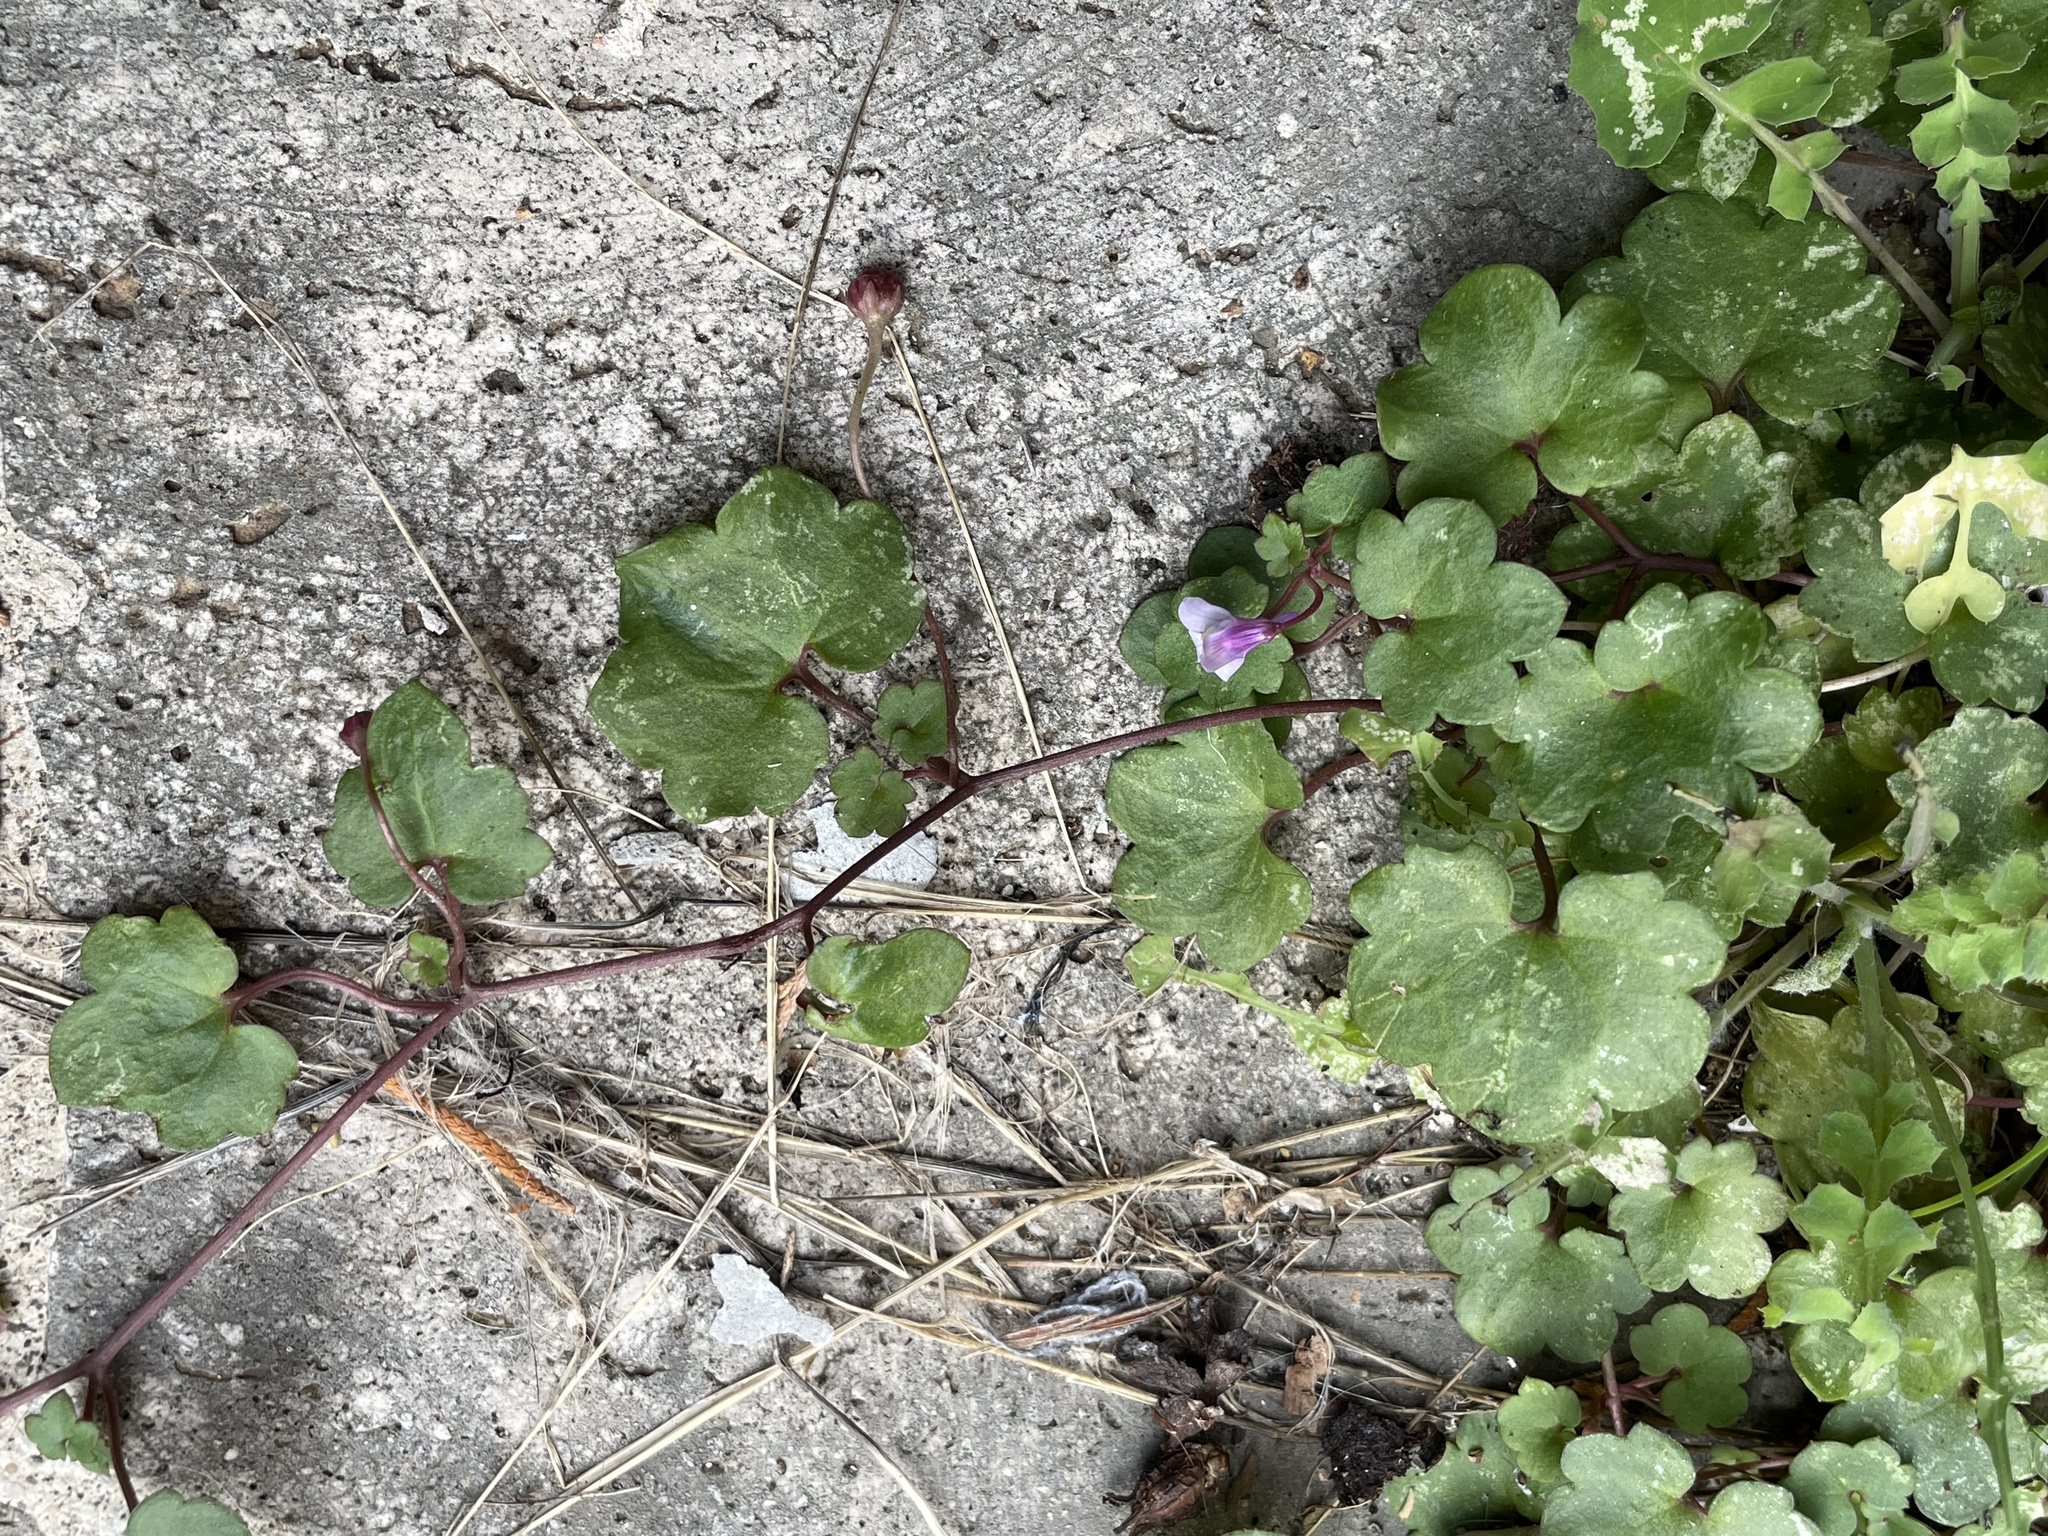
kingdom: Plantae
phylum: Tracheophyta
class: Magnoliopsida
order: Lamiales
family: Plantaginaceae
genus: Cymbalaria
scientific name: Cymbalaria muralis
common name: Ivy-leaved toadflax
